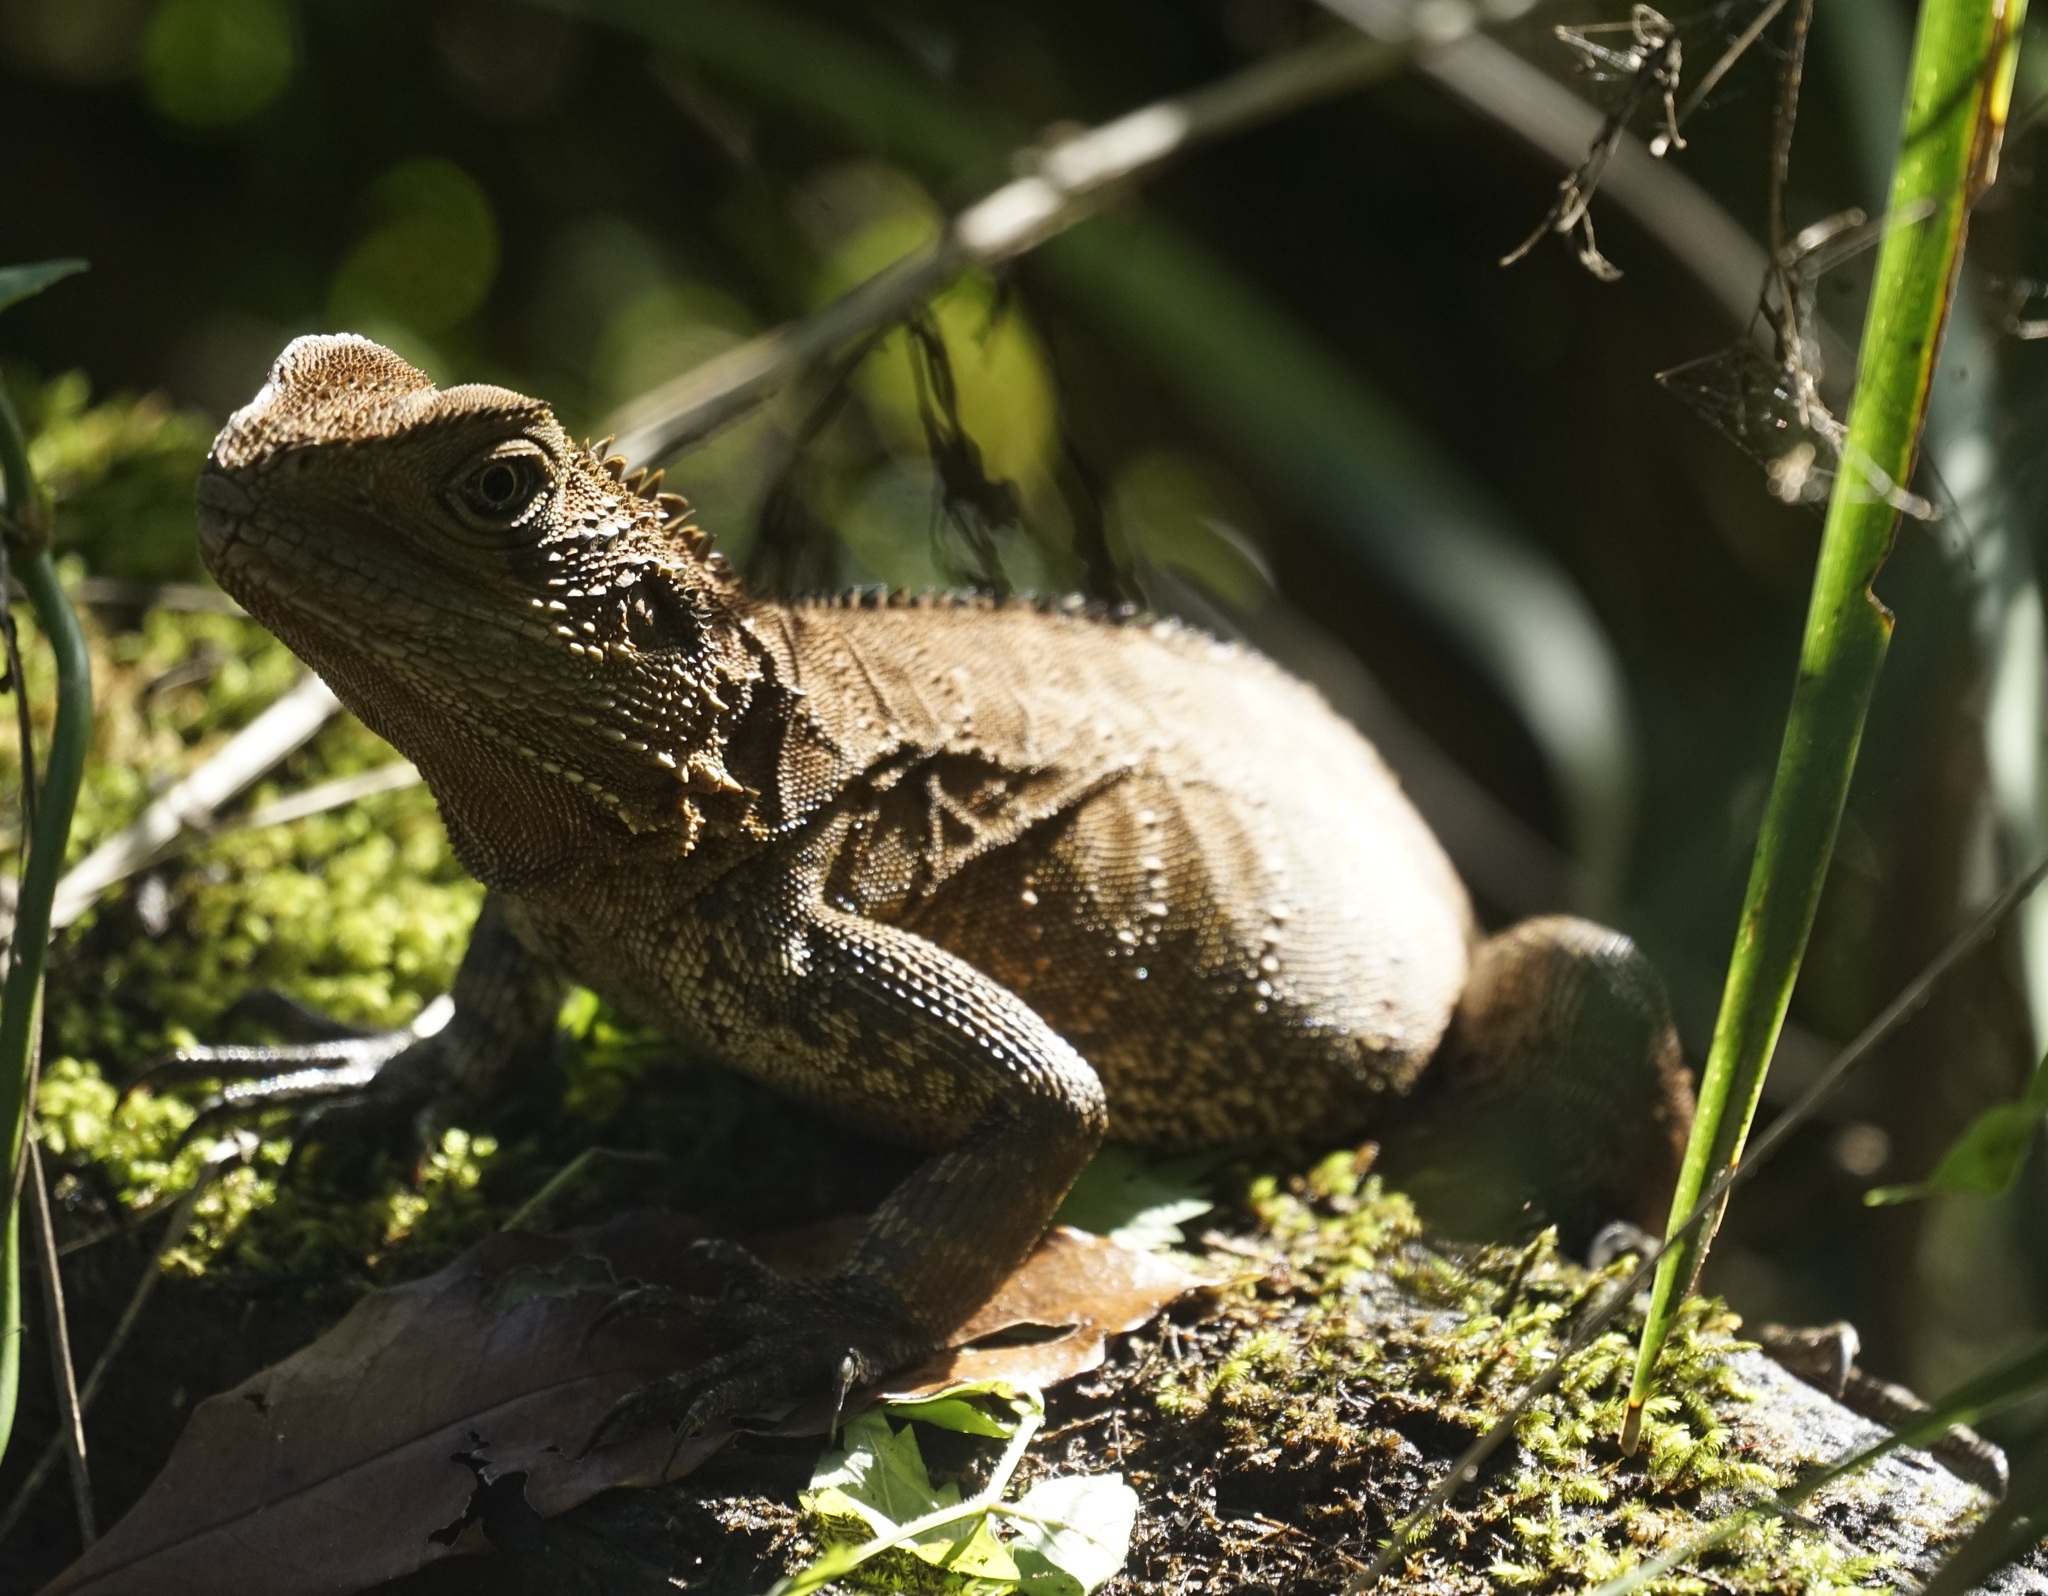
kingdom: Animalia
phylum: Chordata
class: Squamata
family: Agamidae
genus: Intellagama
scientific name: Intellagama lesueurii
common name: Eastern water dragon
